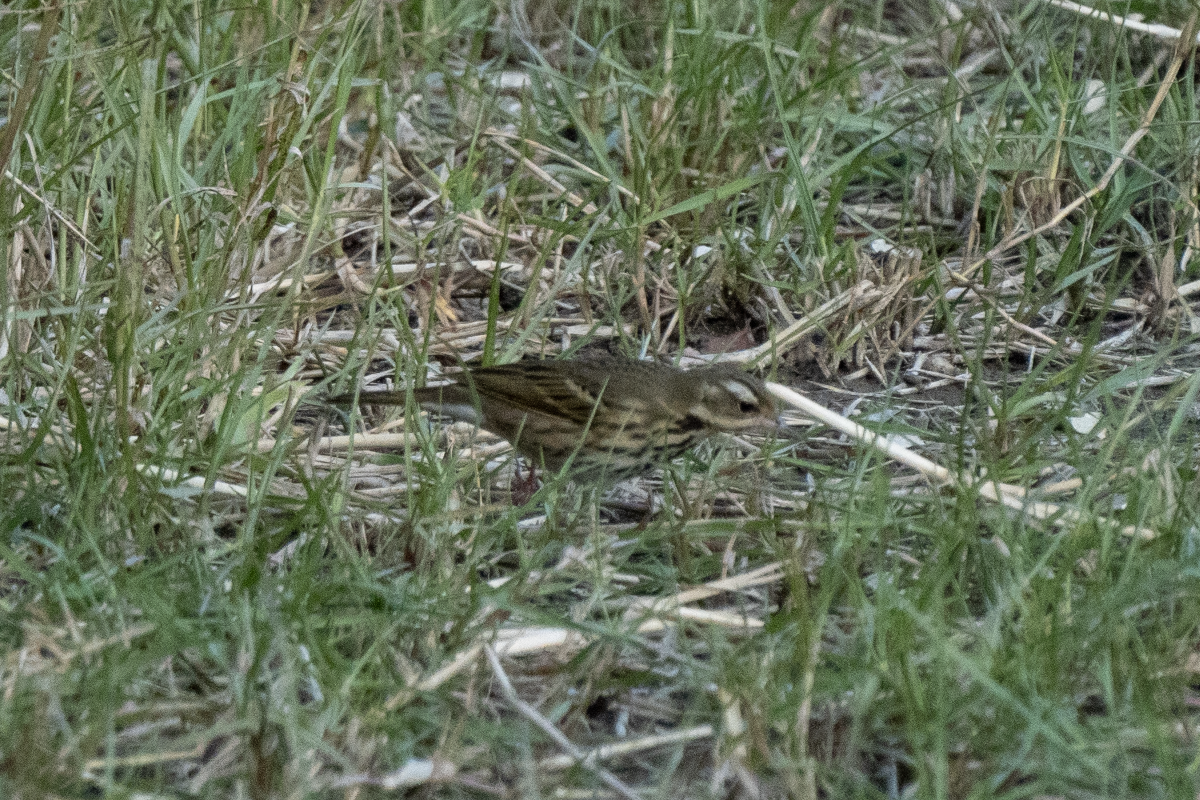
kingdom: Animalia
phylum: Chordata
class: Aves
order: Passeriformes
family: Motacillidae
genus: Anthus
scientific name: Anthus hodgsoni
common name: Olive-backed pipit
